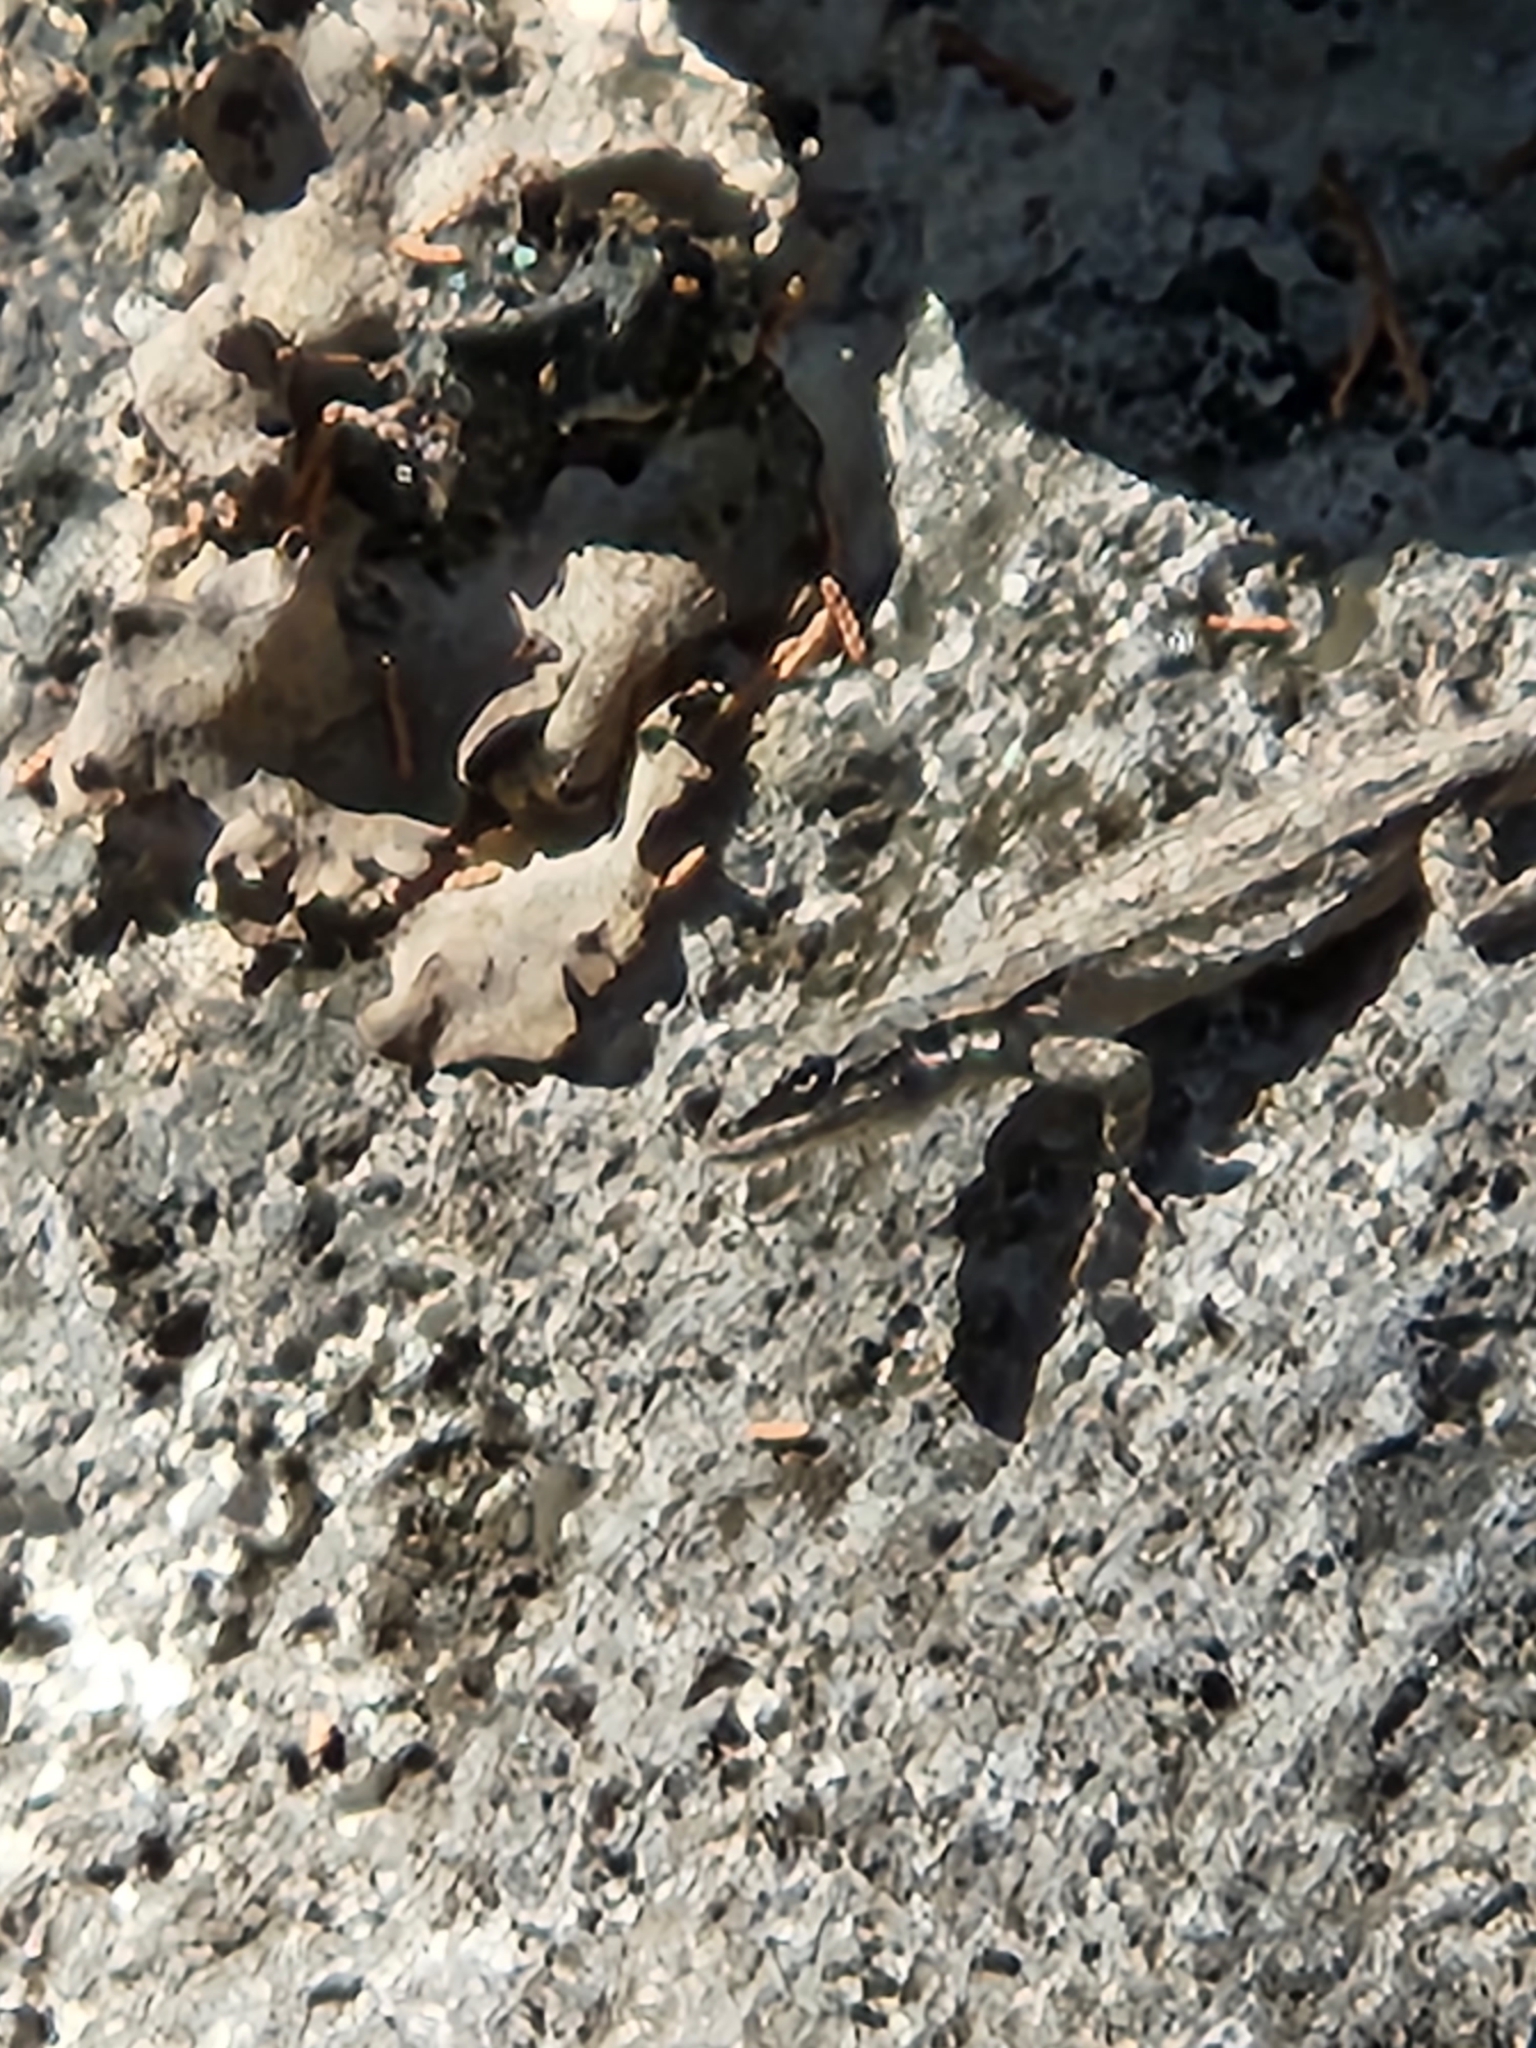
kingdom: Animalia
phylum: Chordata
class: Squamata
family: Phrynosomatidae
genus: Urosaurus
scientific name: Urosaurus ornatus
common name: Ornate tree lizard
